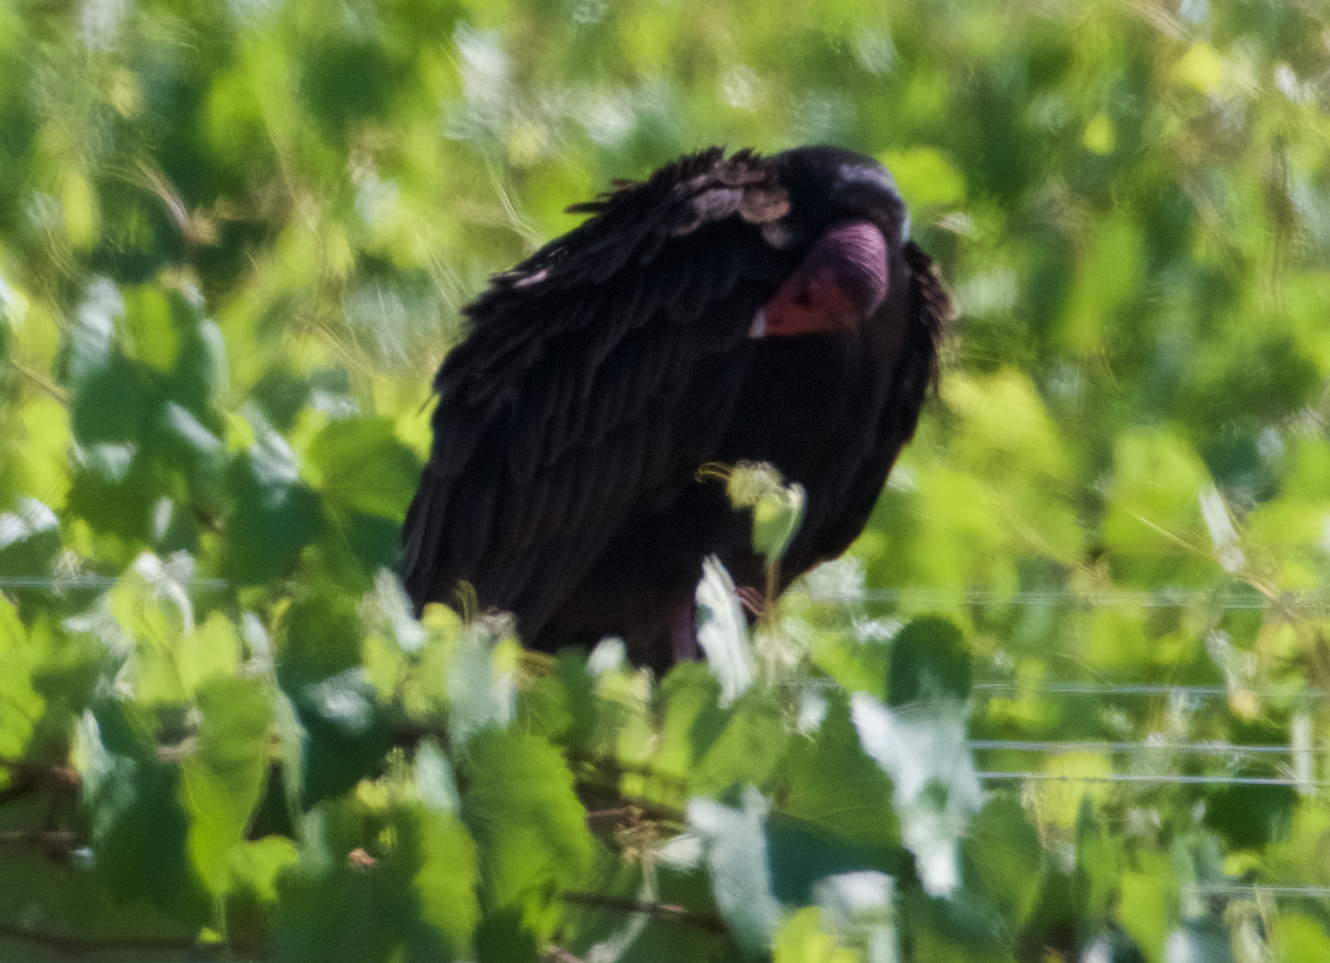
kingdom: Animalia
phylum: Chordata
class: Aves
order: Accipitriformes
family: Cathartidae
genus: Cathartes
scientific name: Cathartes aura
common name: Turkey vulture
